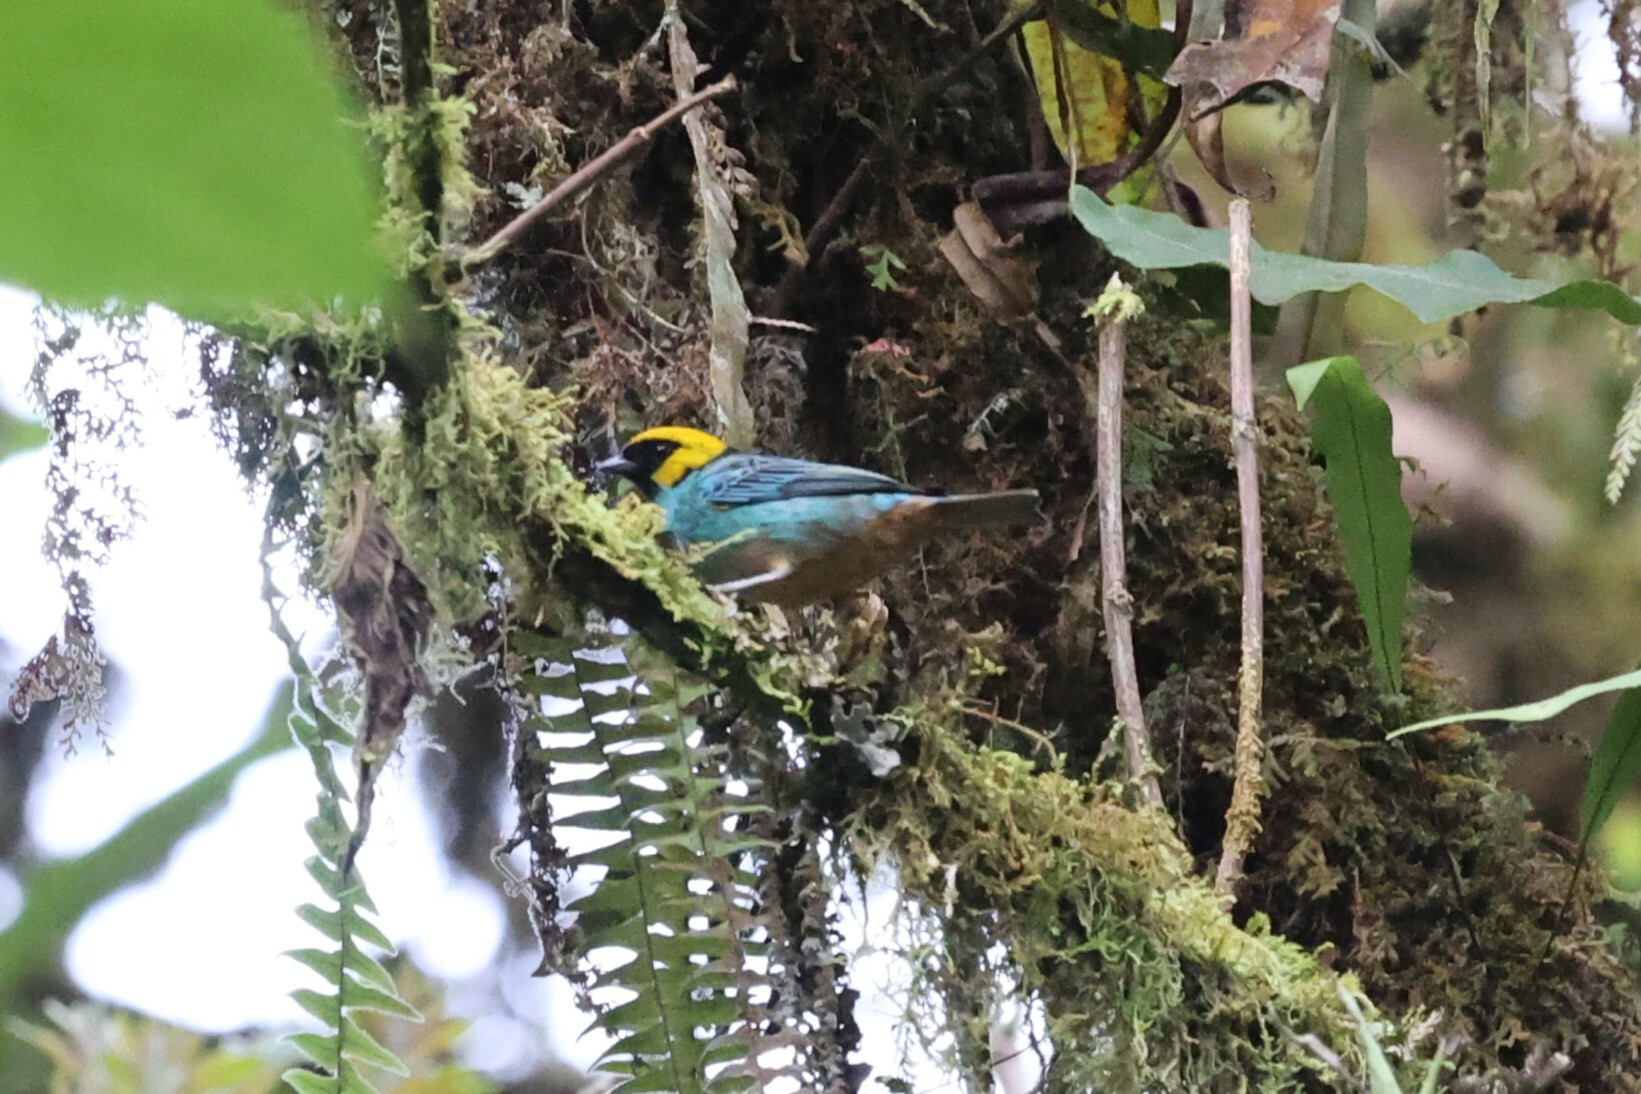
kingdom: Animalia
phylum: Chordata
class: Aves
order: Passeriformes
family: Thraupidae
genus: Tangara
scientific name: Tangara xanthocephala
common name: Saffron-crowned tanager
